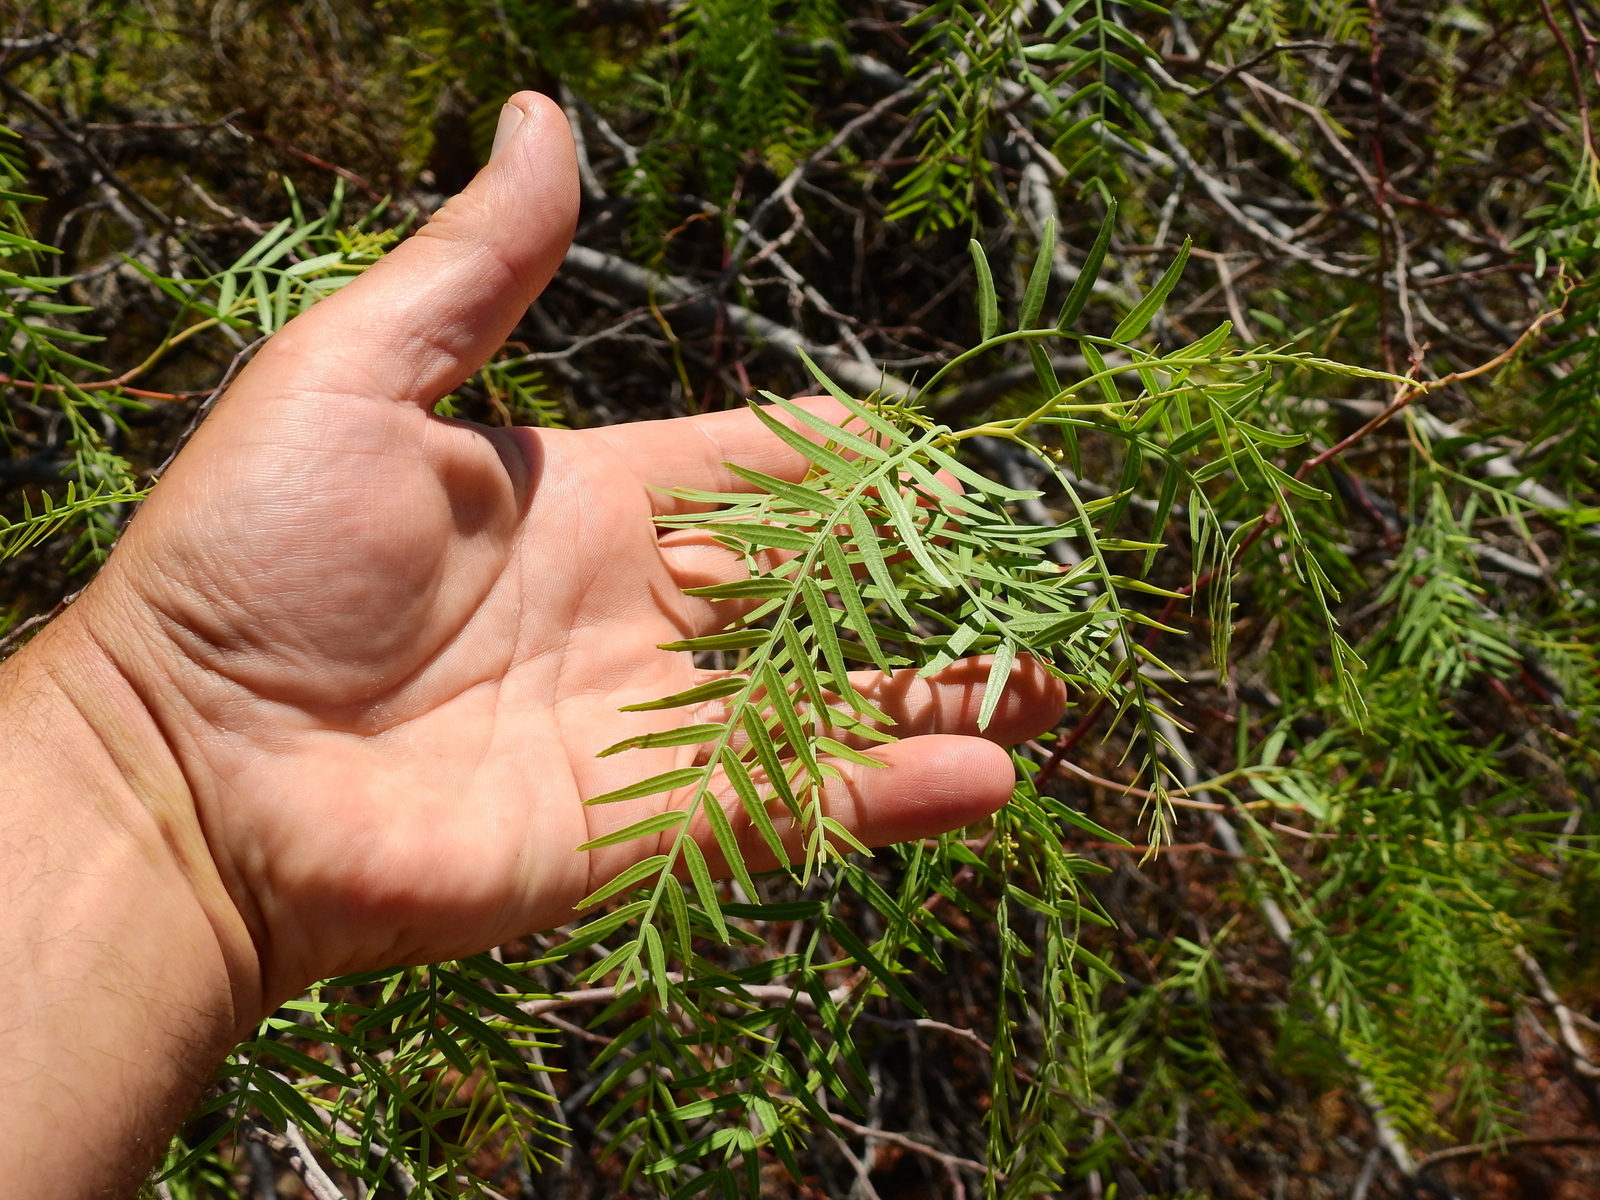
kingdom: Plantae
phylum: Tracheophyta
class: Magnoliopsida
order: Sapindales
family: Anacardiaceae
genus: Schinus
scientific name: Schinus areira
